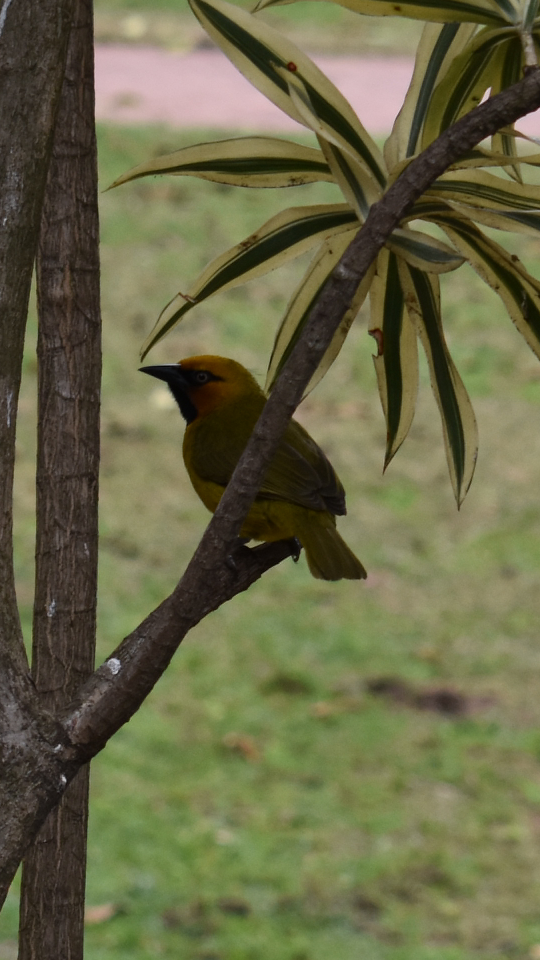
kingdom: Animalia
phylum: Chordata
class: Aves
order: Passeriformes
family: Ploceidae
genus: Ploceus
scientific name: Ploceus ocularis
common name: Spectacled weaver
